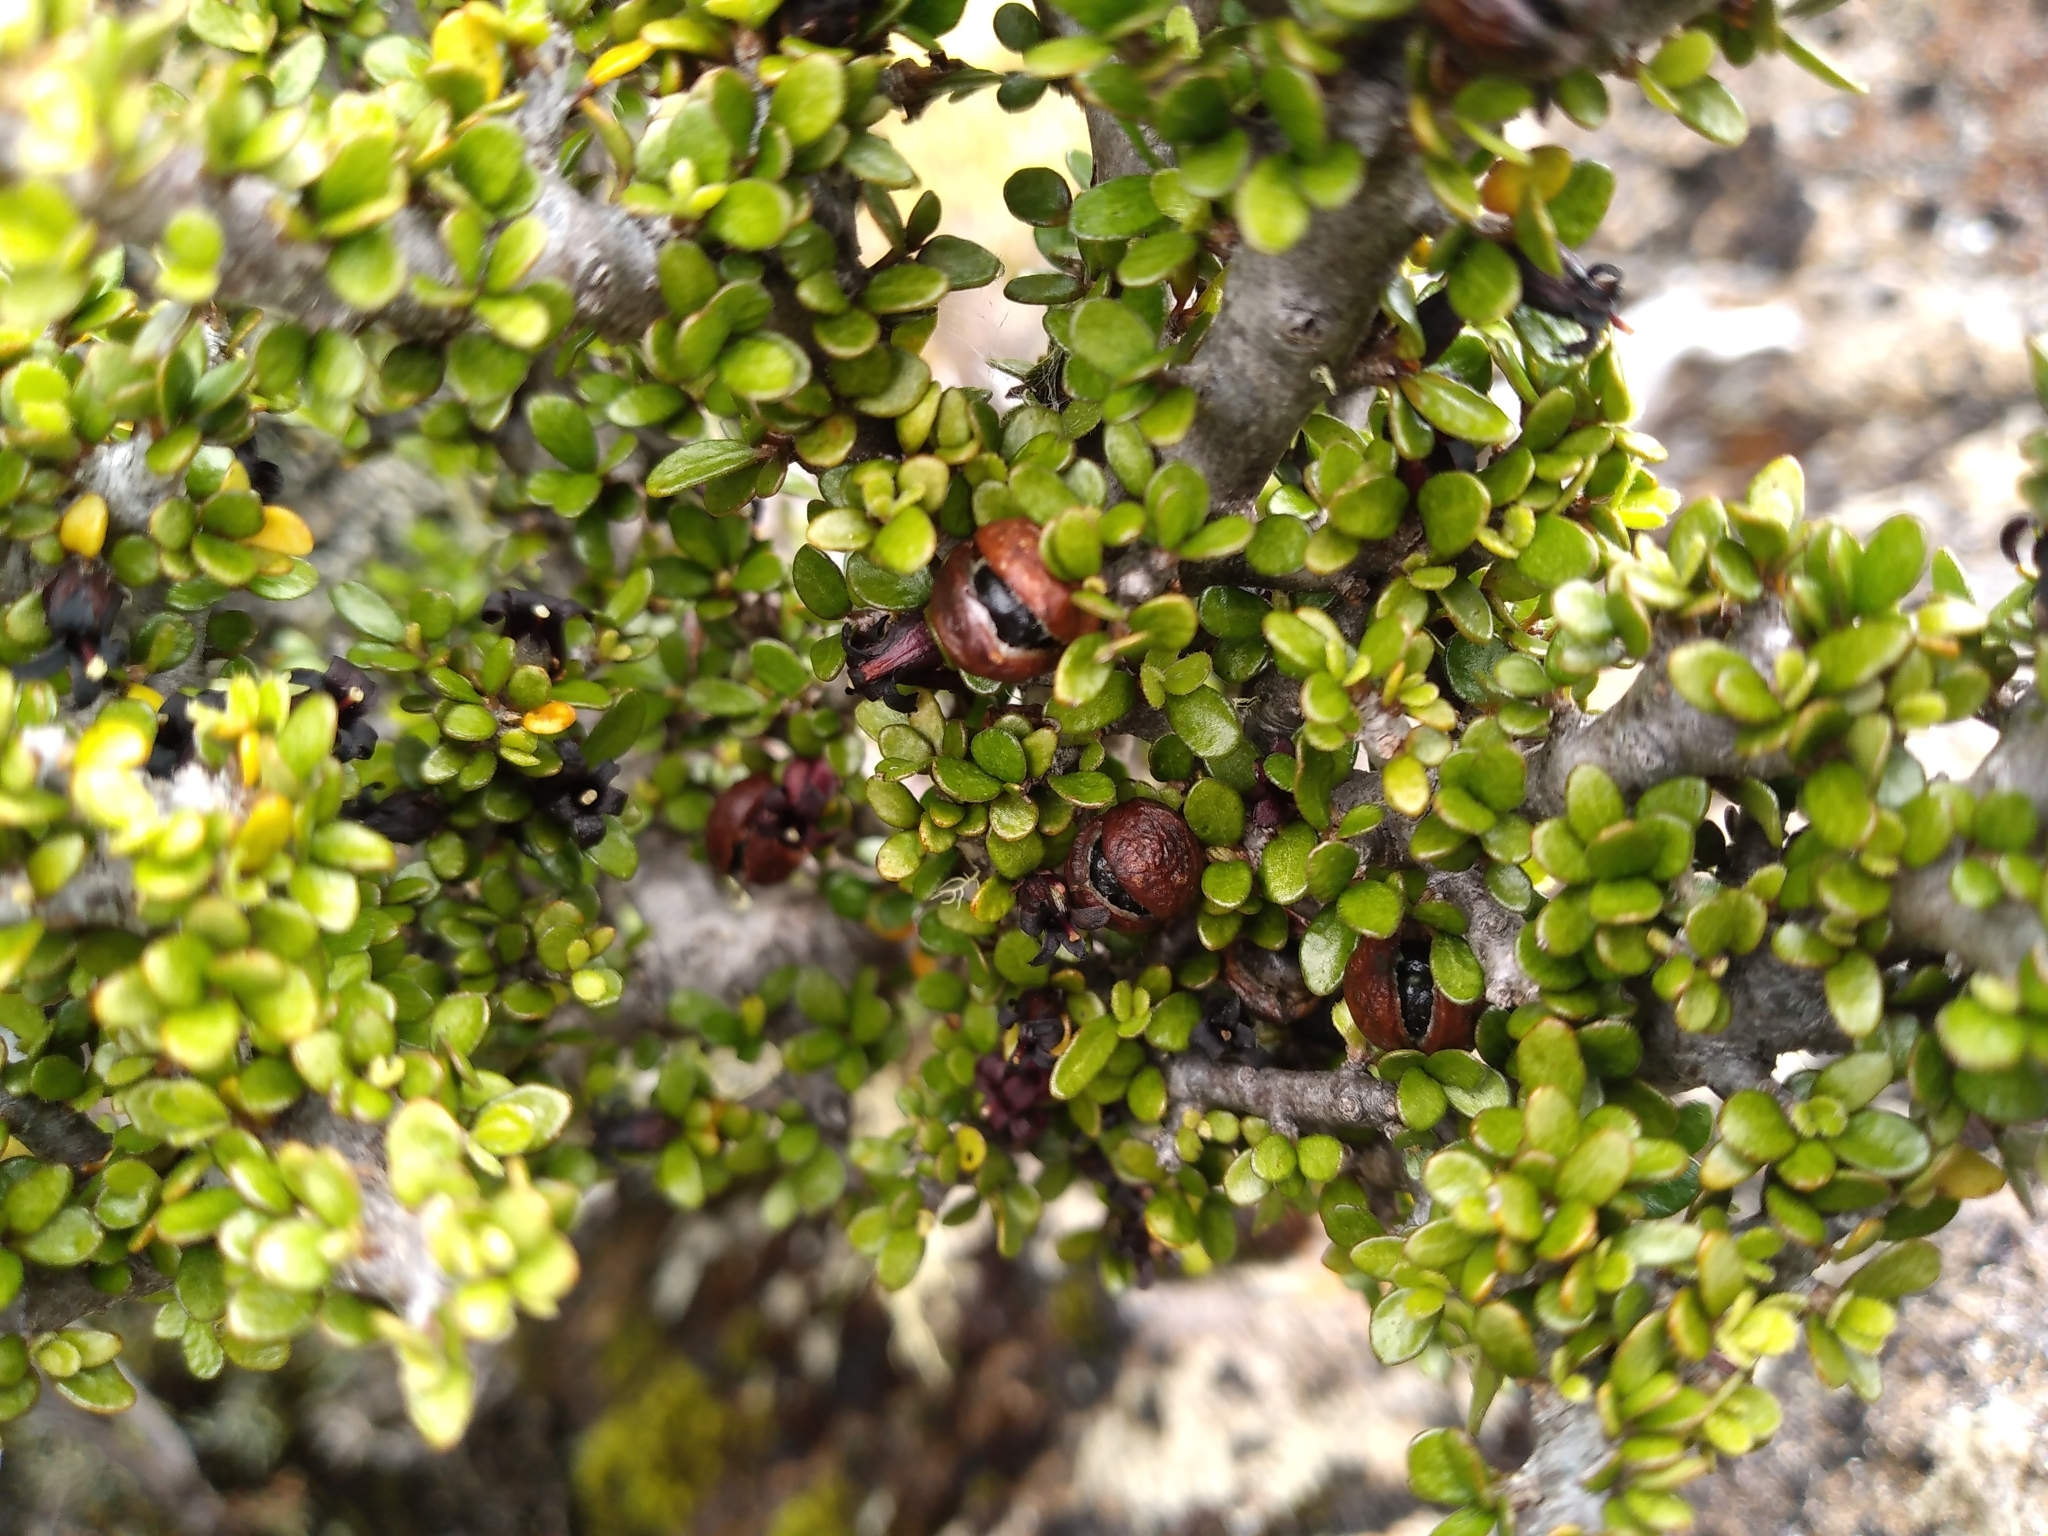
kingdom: Plantae
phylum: Tracheophyta
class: Magnoliopsida
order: Apiales
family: Pittosporaceae
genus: Pittosporum
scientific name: Pittosporum rigidum
